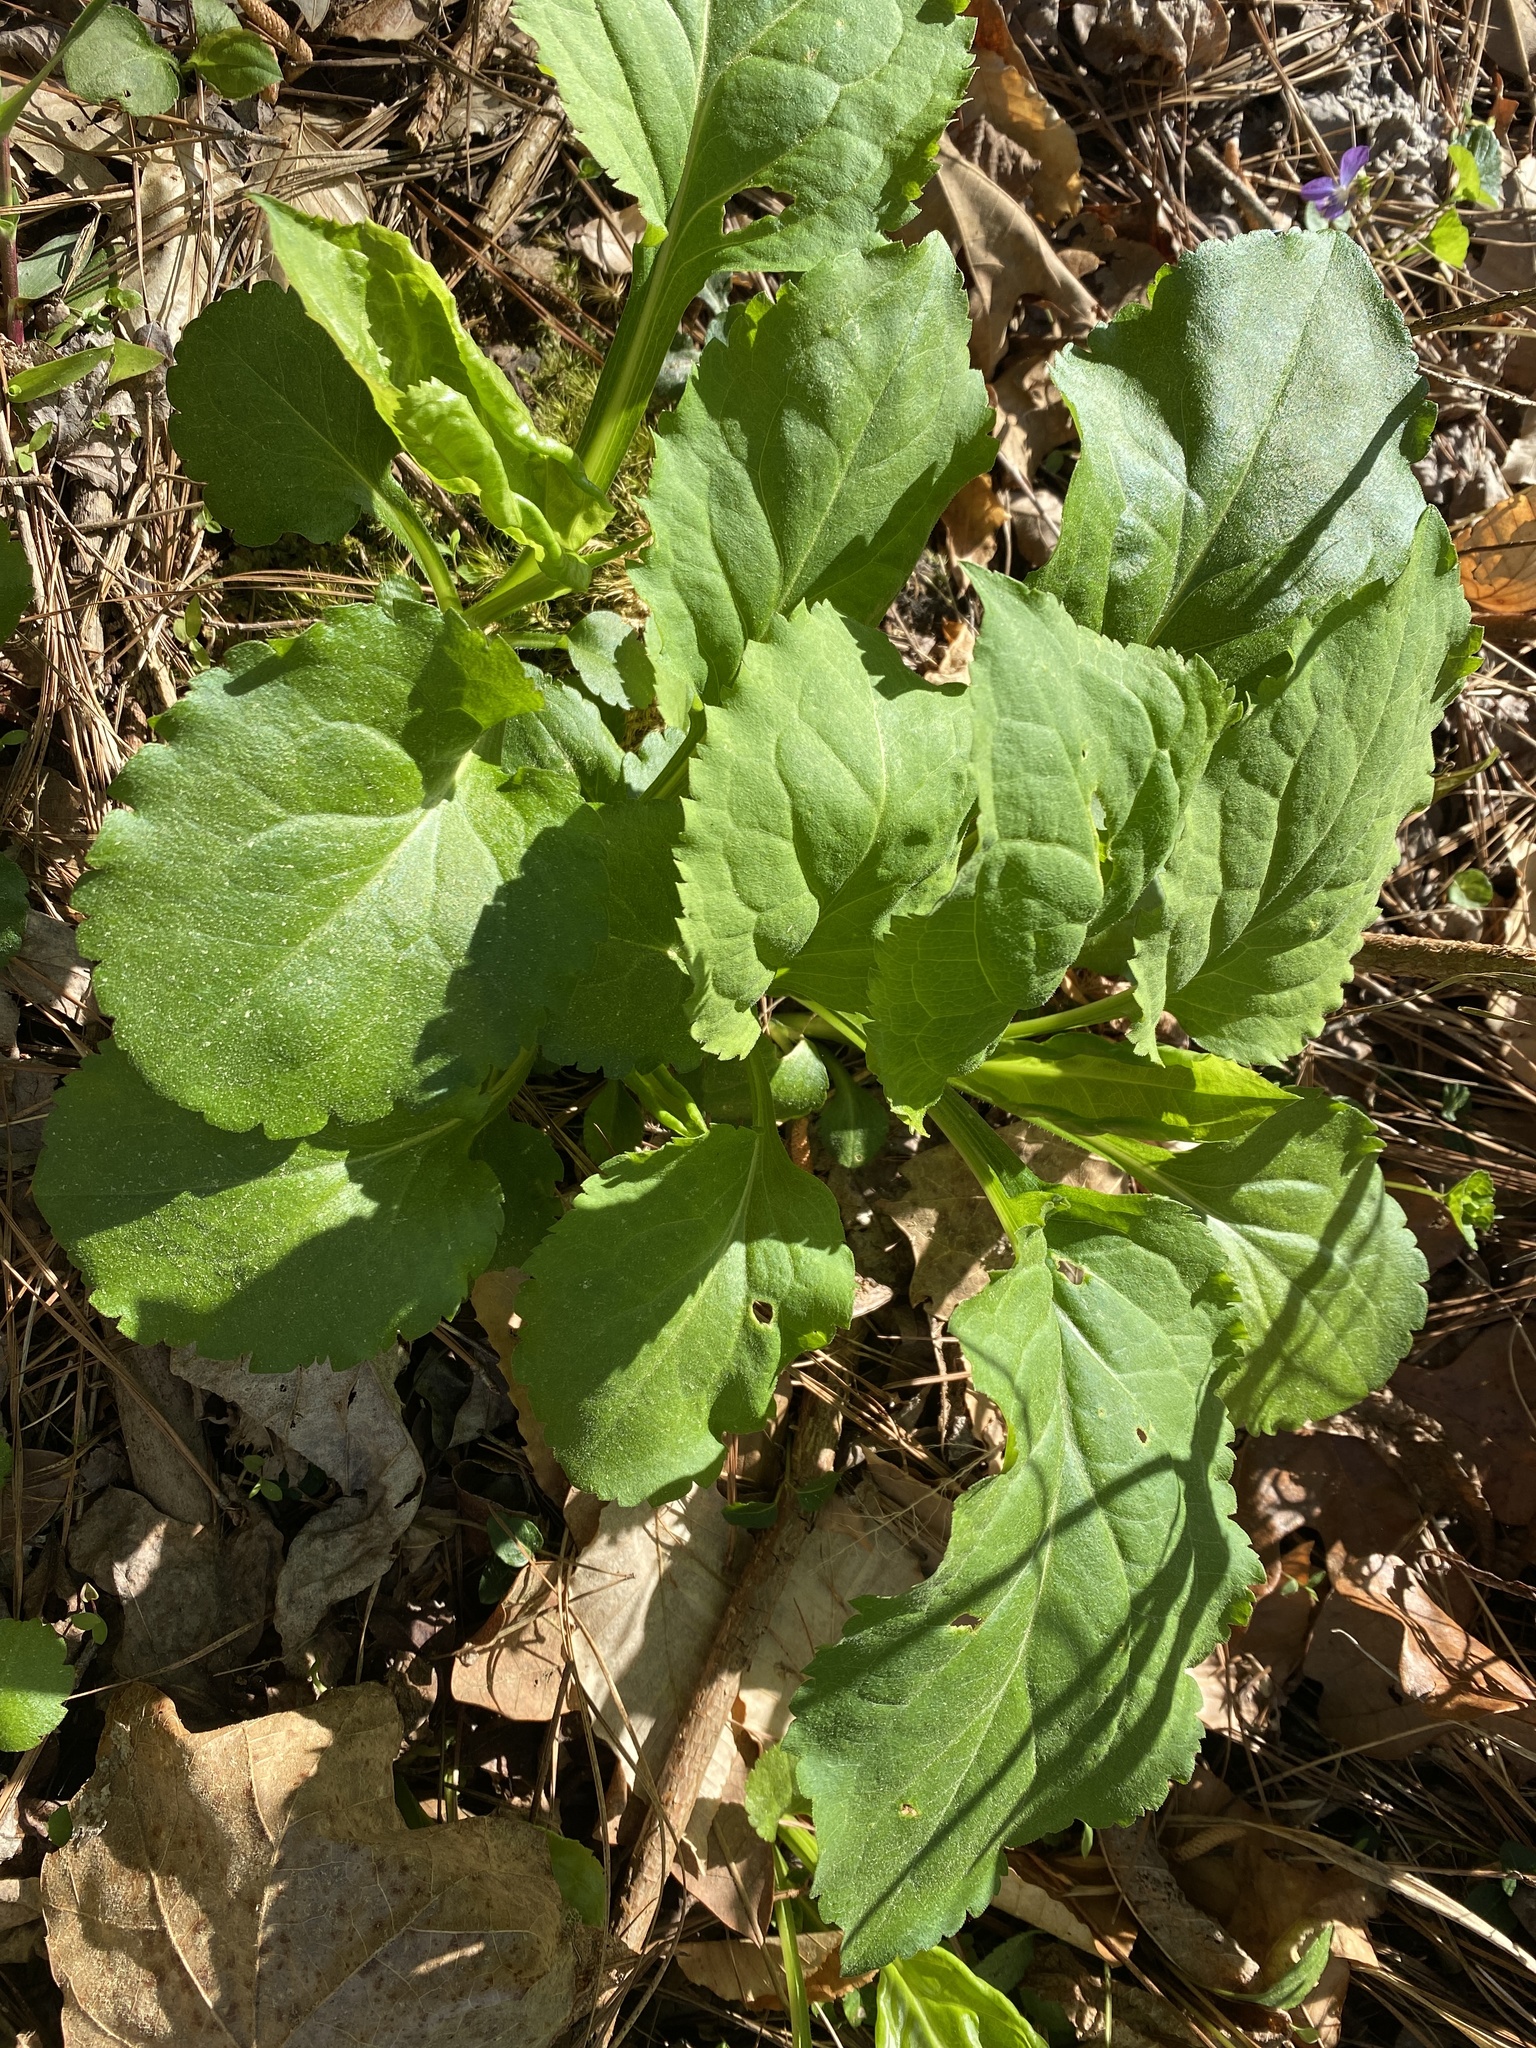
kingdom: Plantae
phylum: Tracheophyta
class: Magnoliopsida
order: Asterales
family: Asteraceae
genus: Solidago
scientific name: Solidago faucibus
